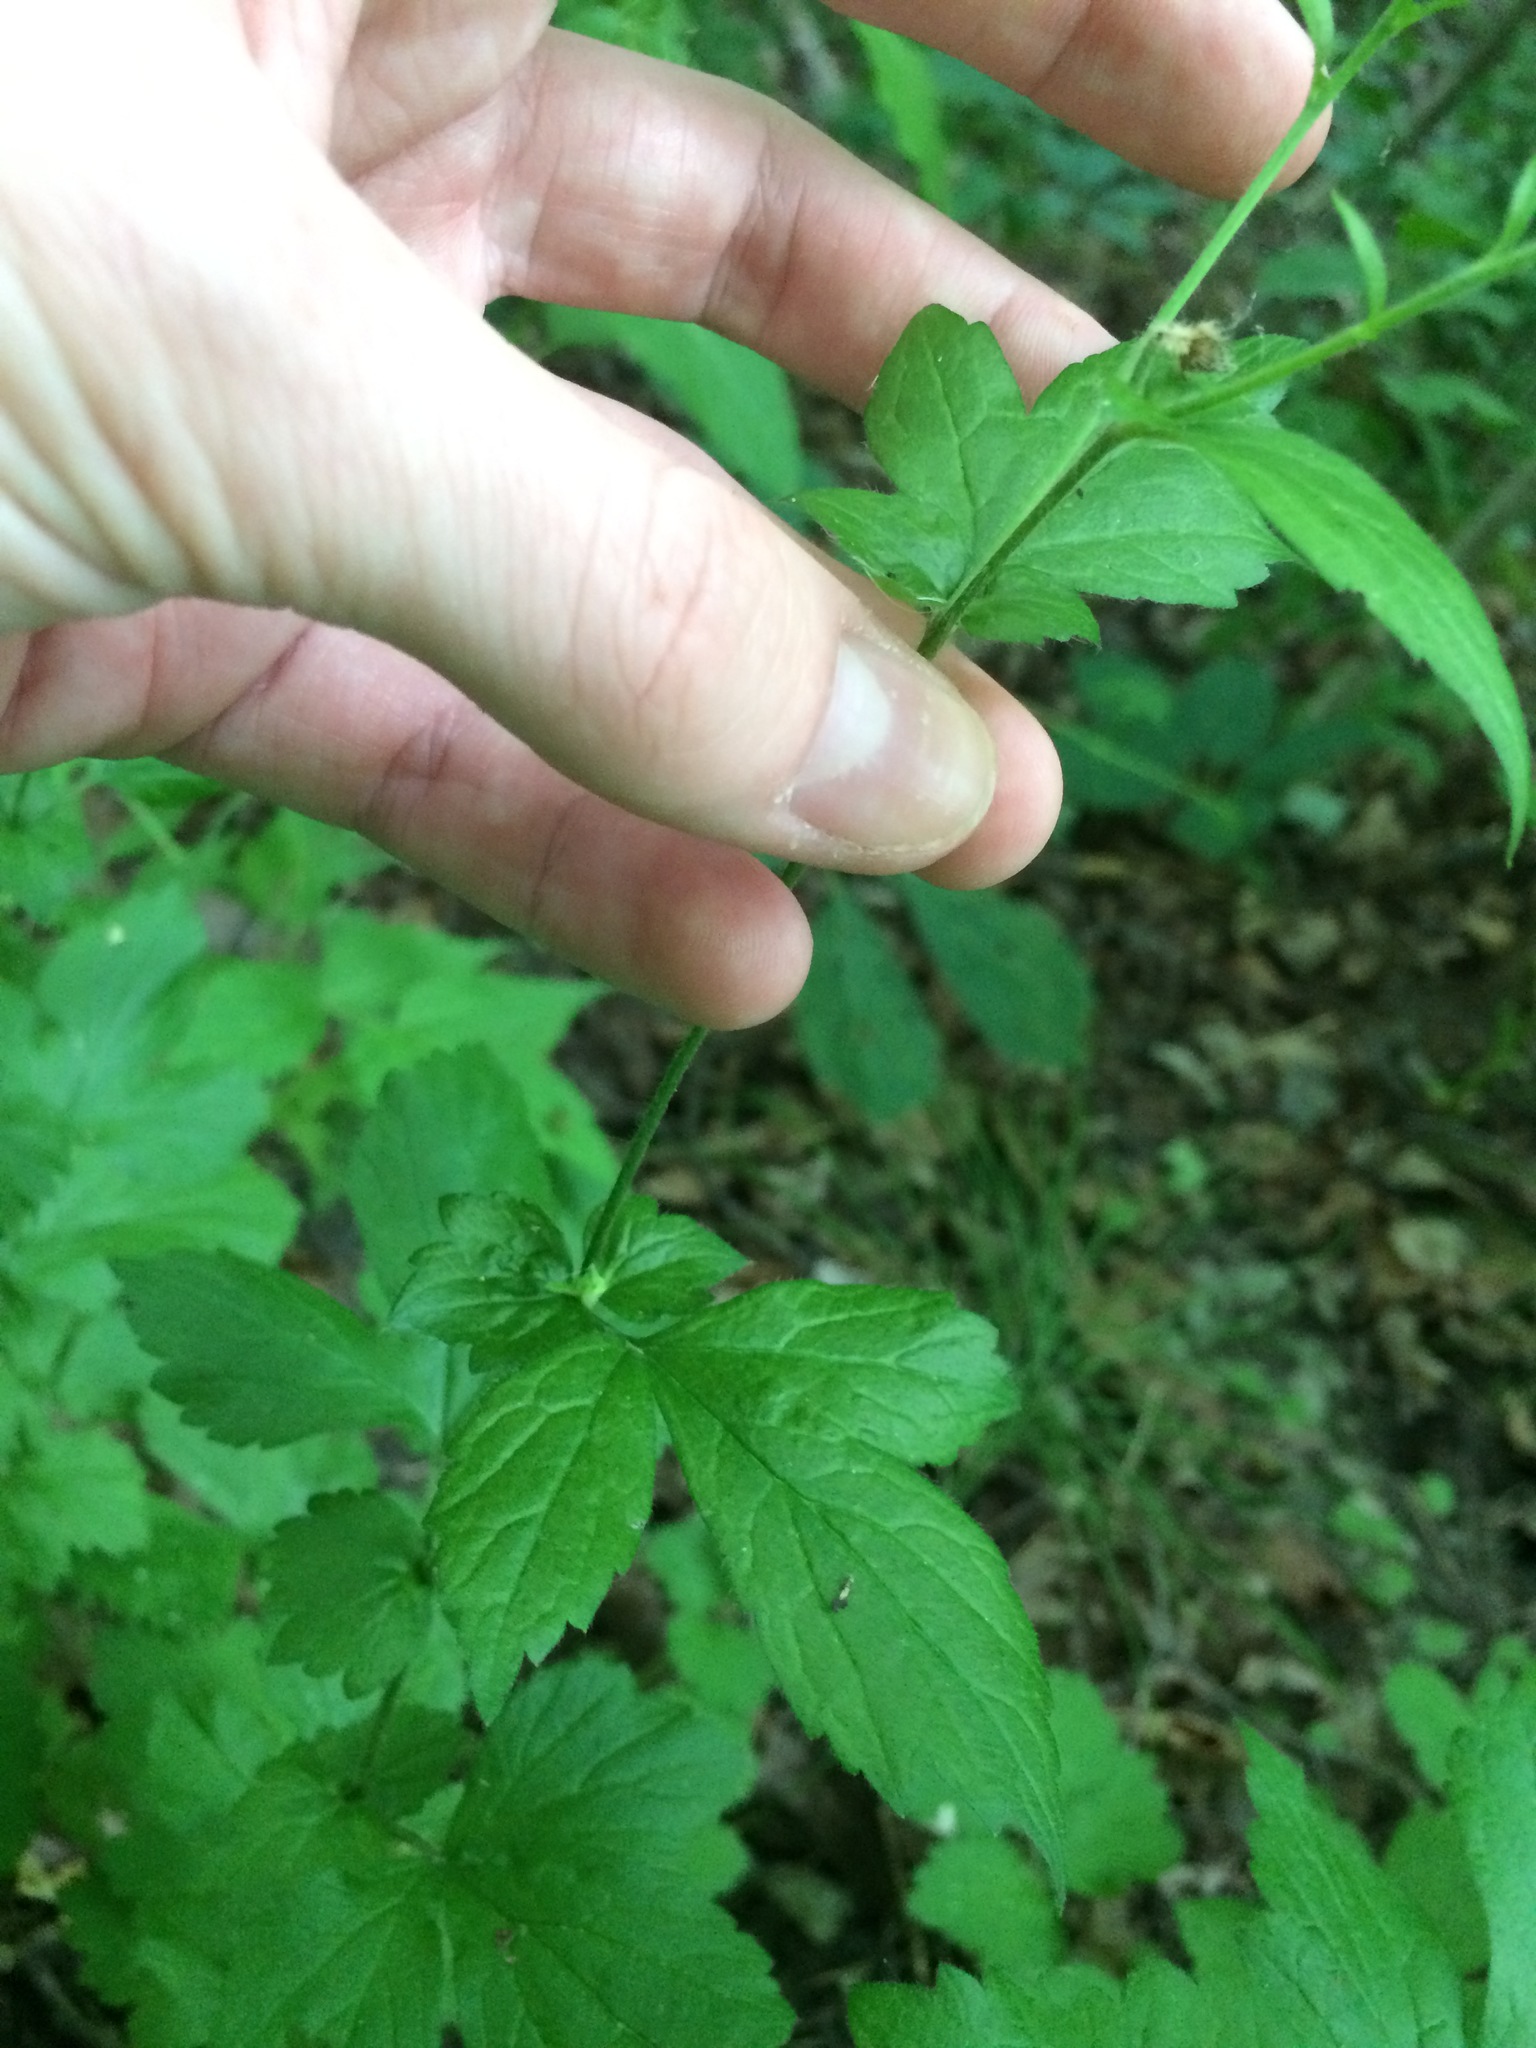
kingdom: Plantae
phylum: Tracheophyta
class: Magnoliopsida
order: Rosales
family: Rosaceae
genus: Geum
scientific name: Geum urbanum
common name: Wood avens
